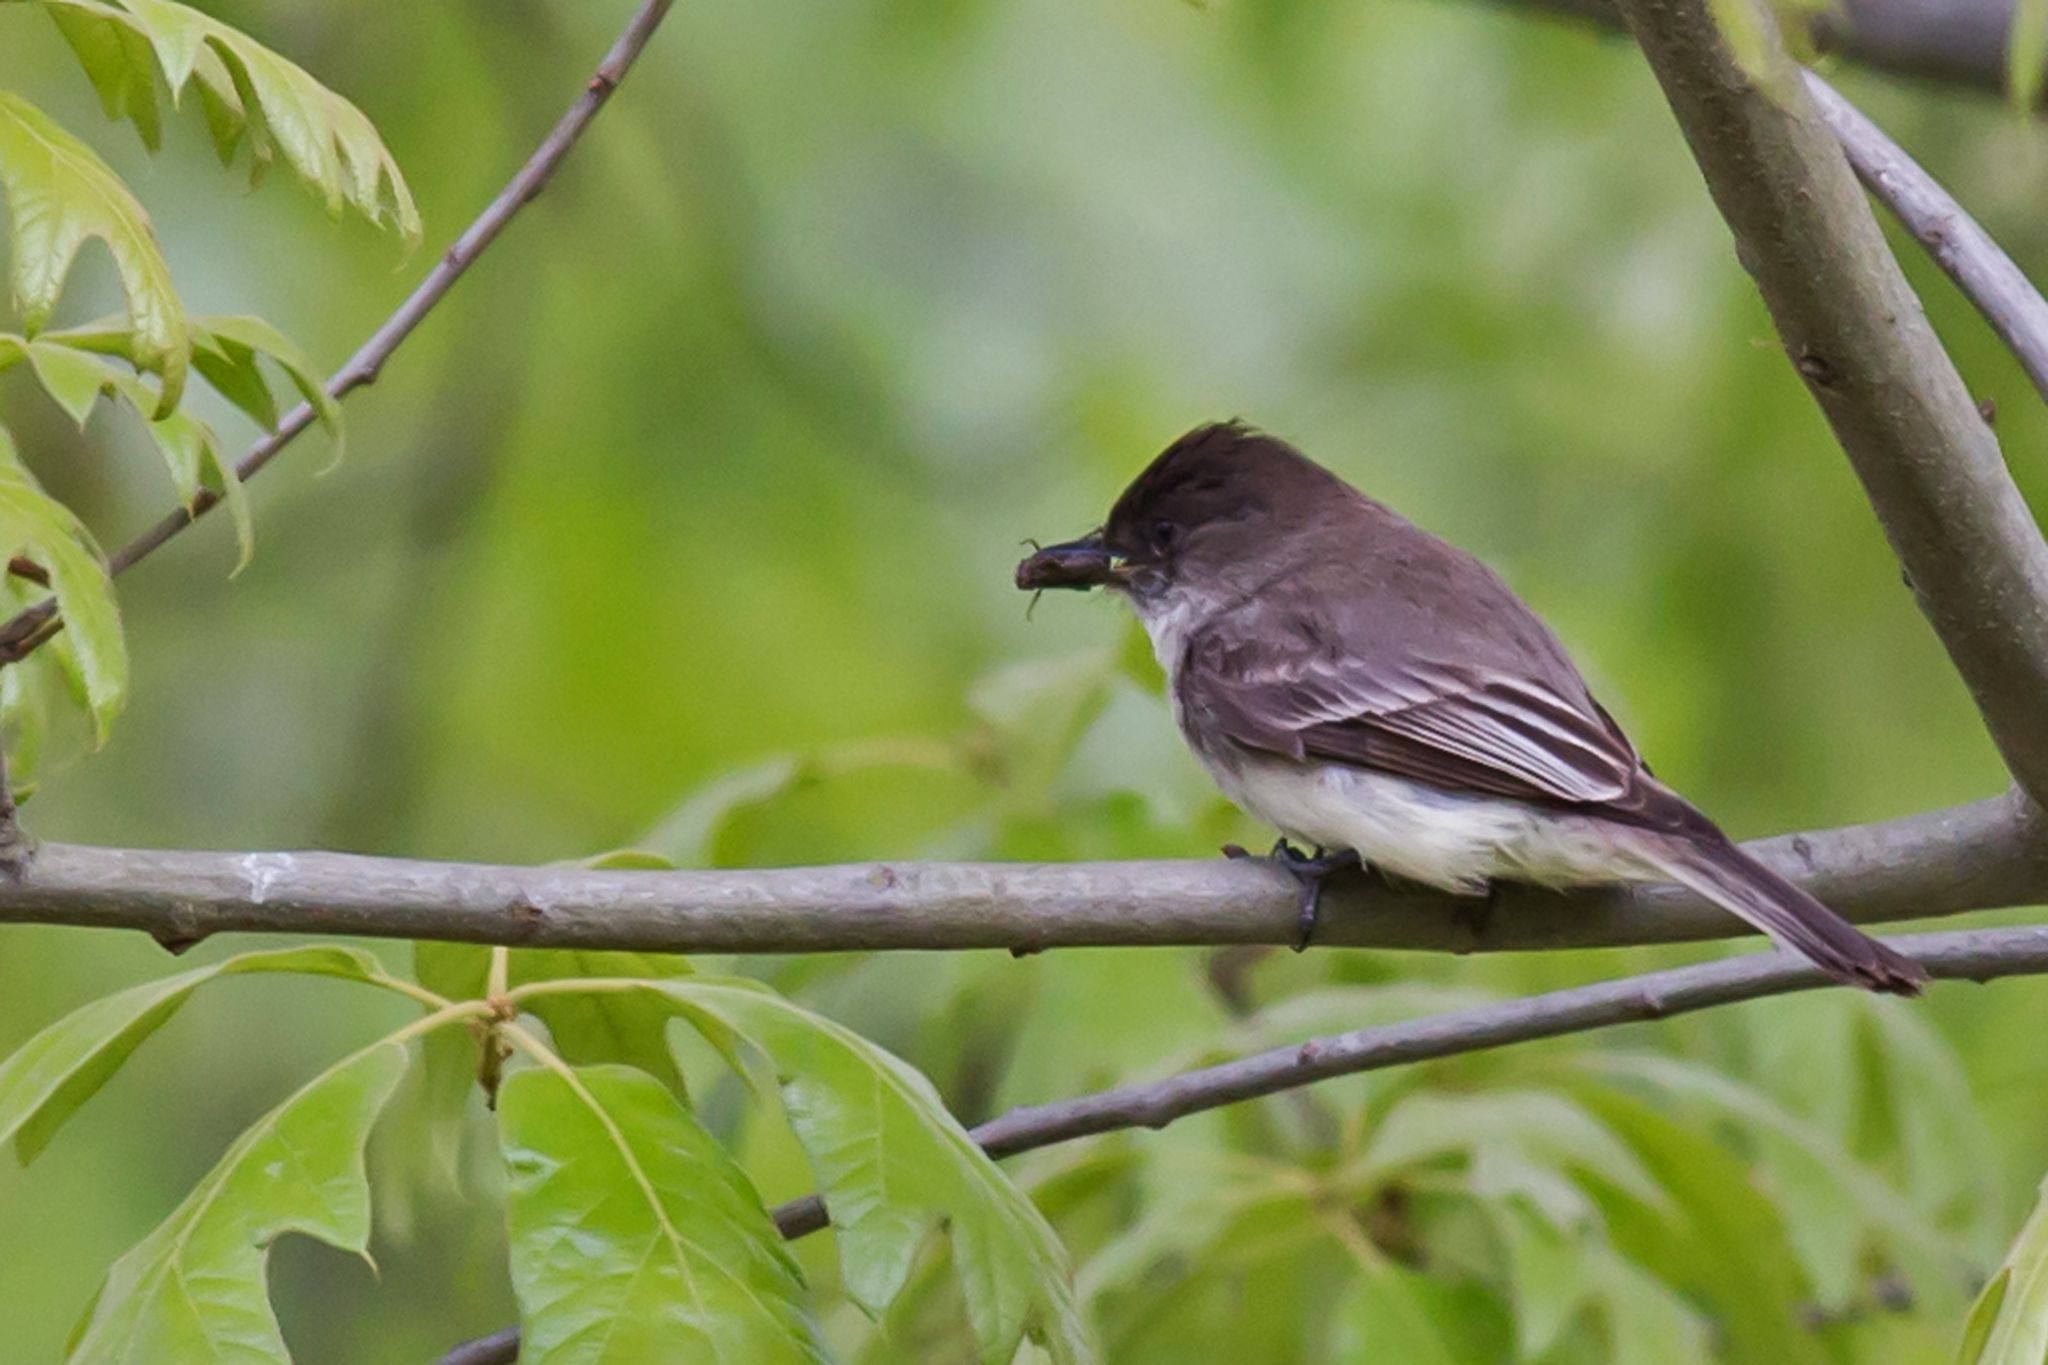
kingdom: Animalia
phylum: Chordata
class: Aves
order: Passeriformes
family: Tyrannidae
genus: Sayornis
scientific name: Sayornis phoebe
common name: Eastern phoebe
